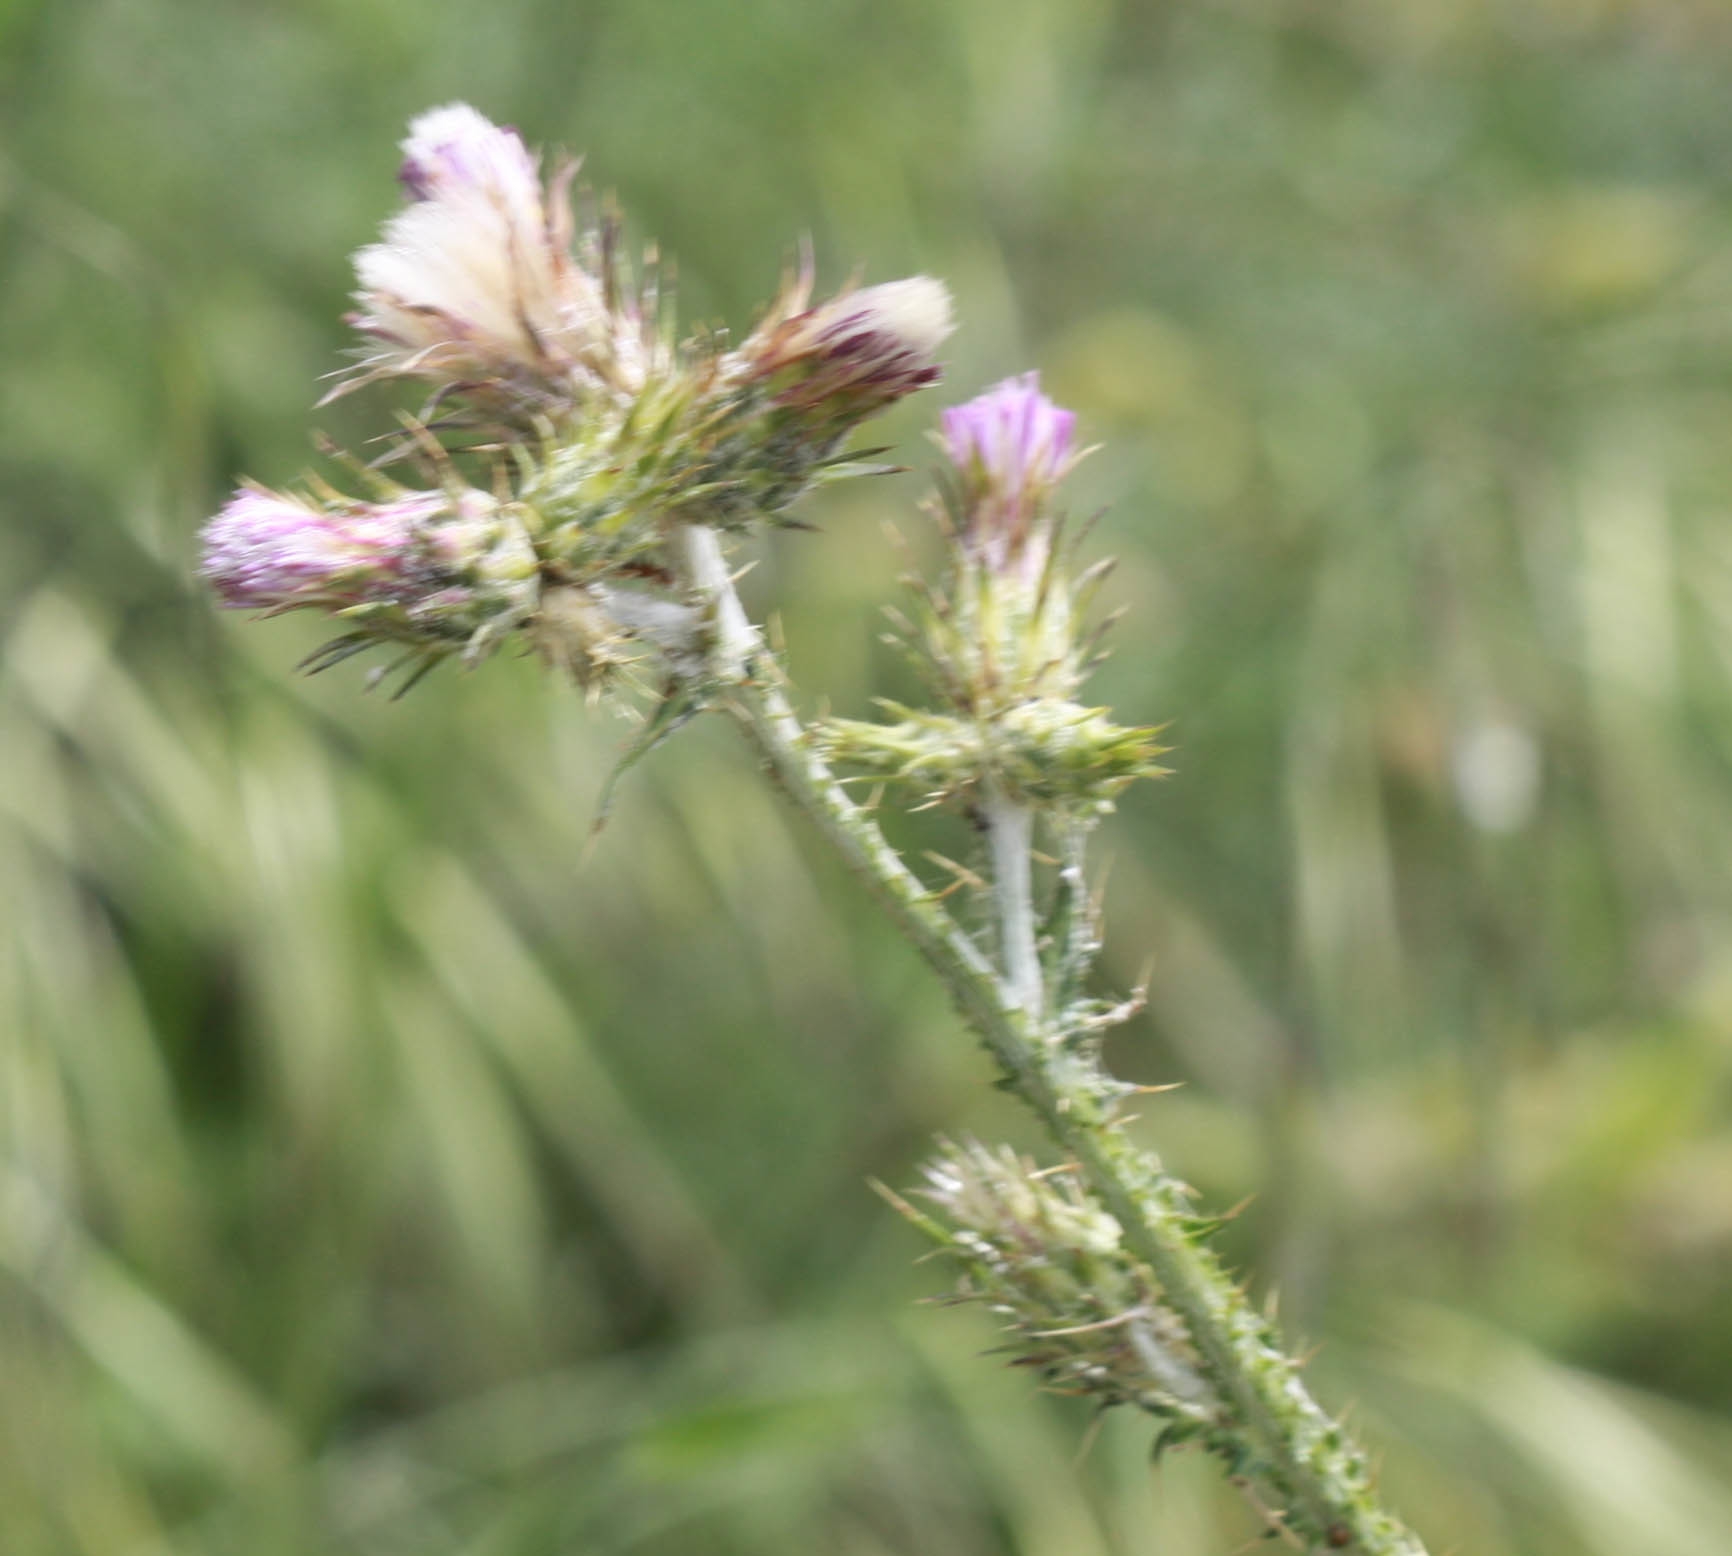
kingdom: Plantae
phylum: Tracheophyta
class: Magnoliopsida
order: Asterales
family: Asteraceae
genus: Carduus
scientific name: Carduus pycnocephalus
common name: Plymouth thistle
